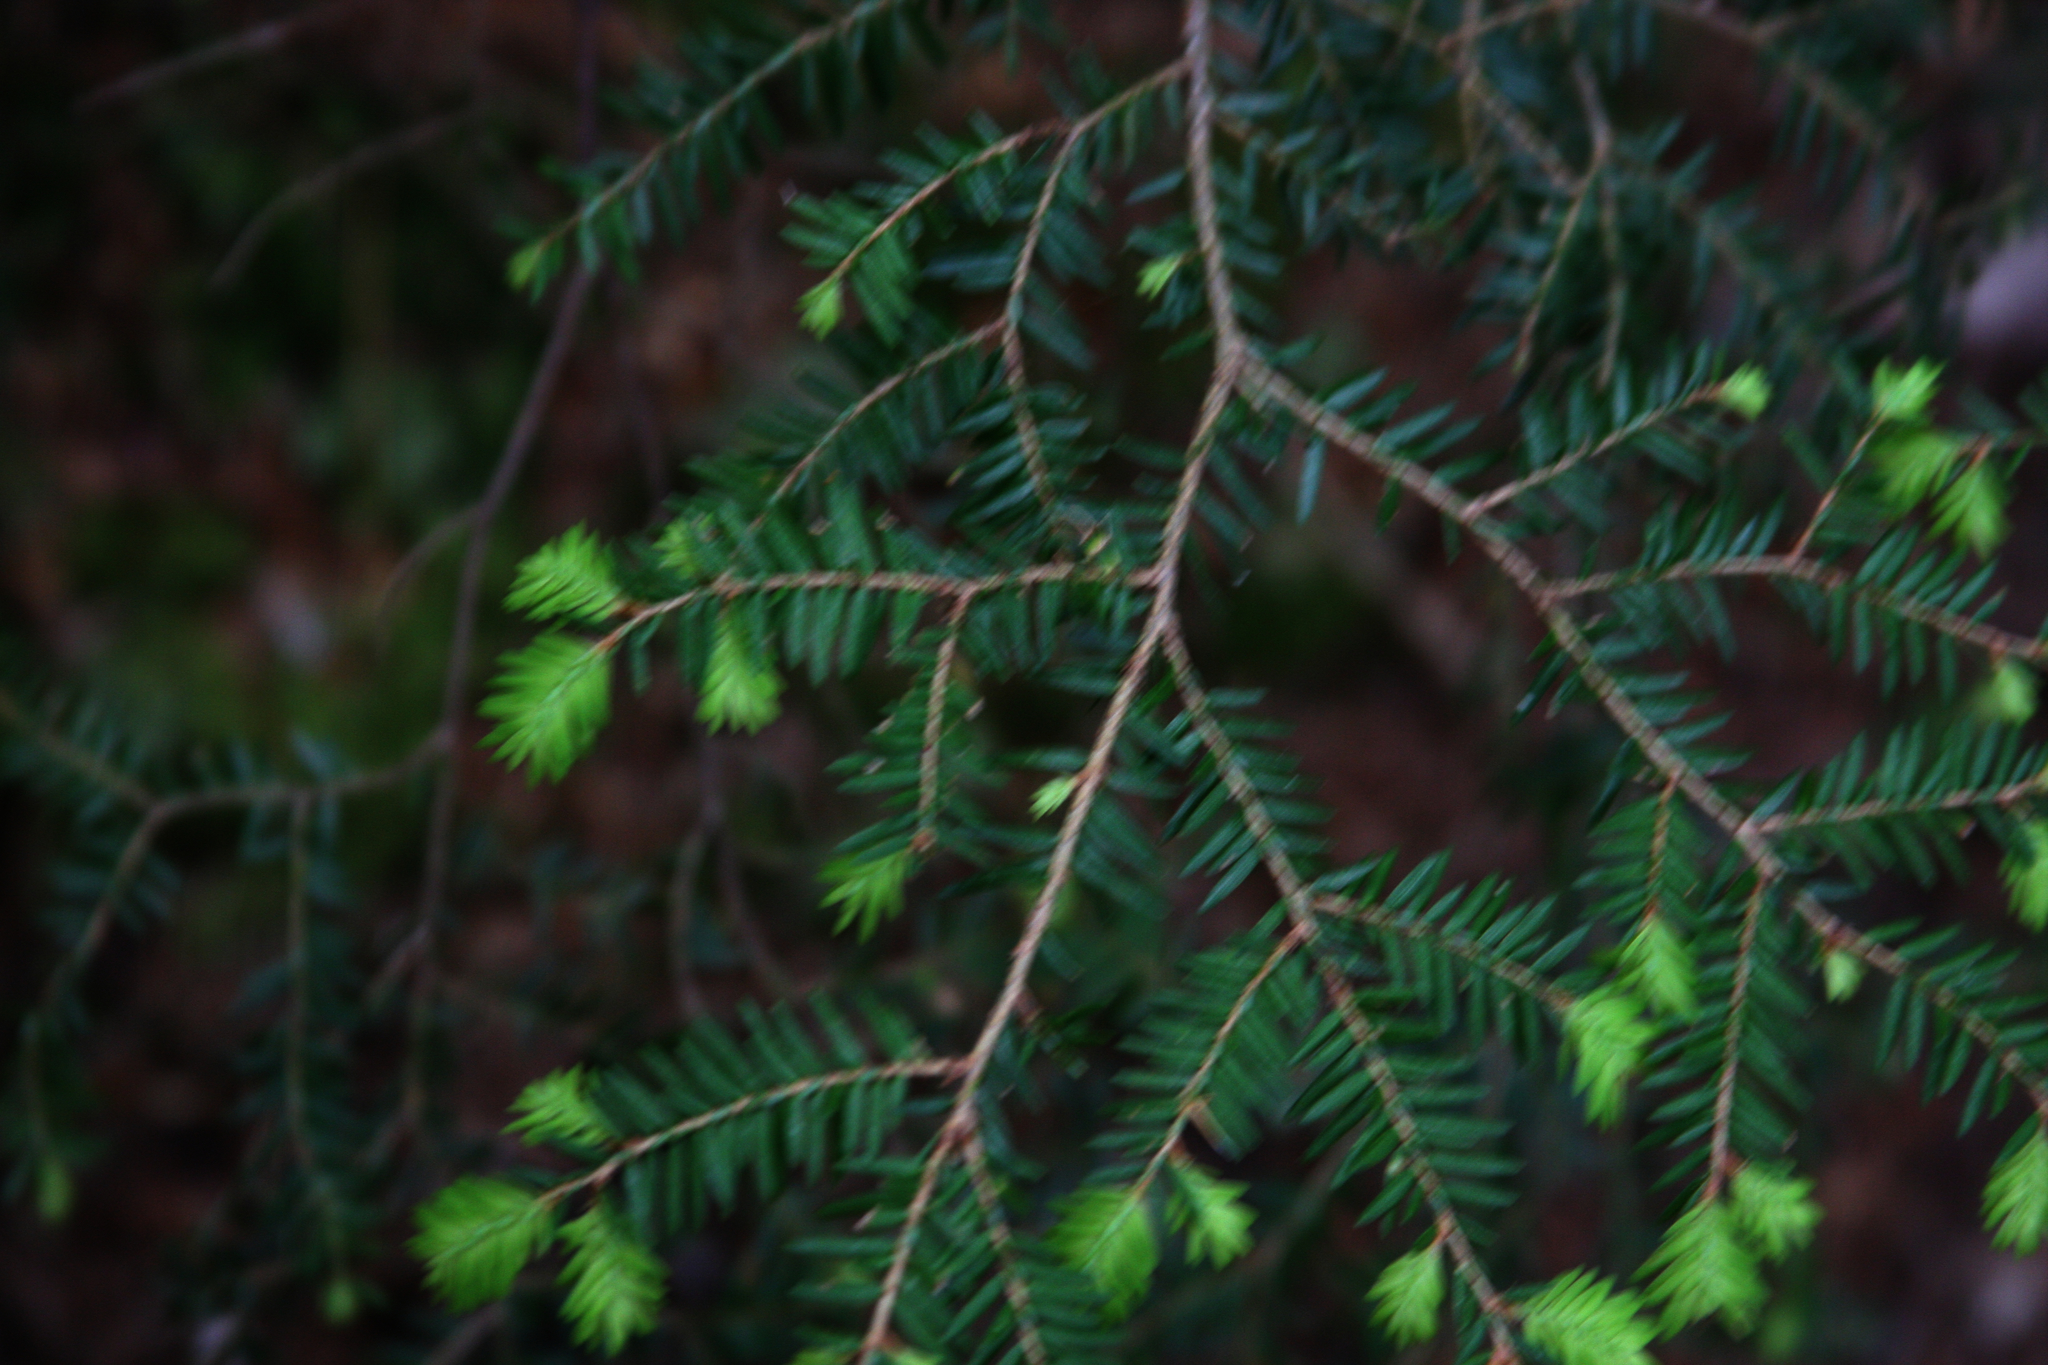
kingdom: Plantae
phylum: Tracheophyta
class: Pinopsida
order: Pinales
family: Pinaceae
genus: Tsuga
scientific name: Tsuga canadensis
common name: Eastern hemlock
